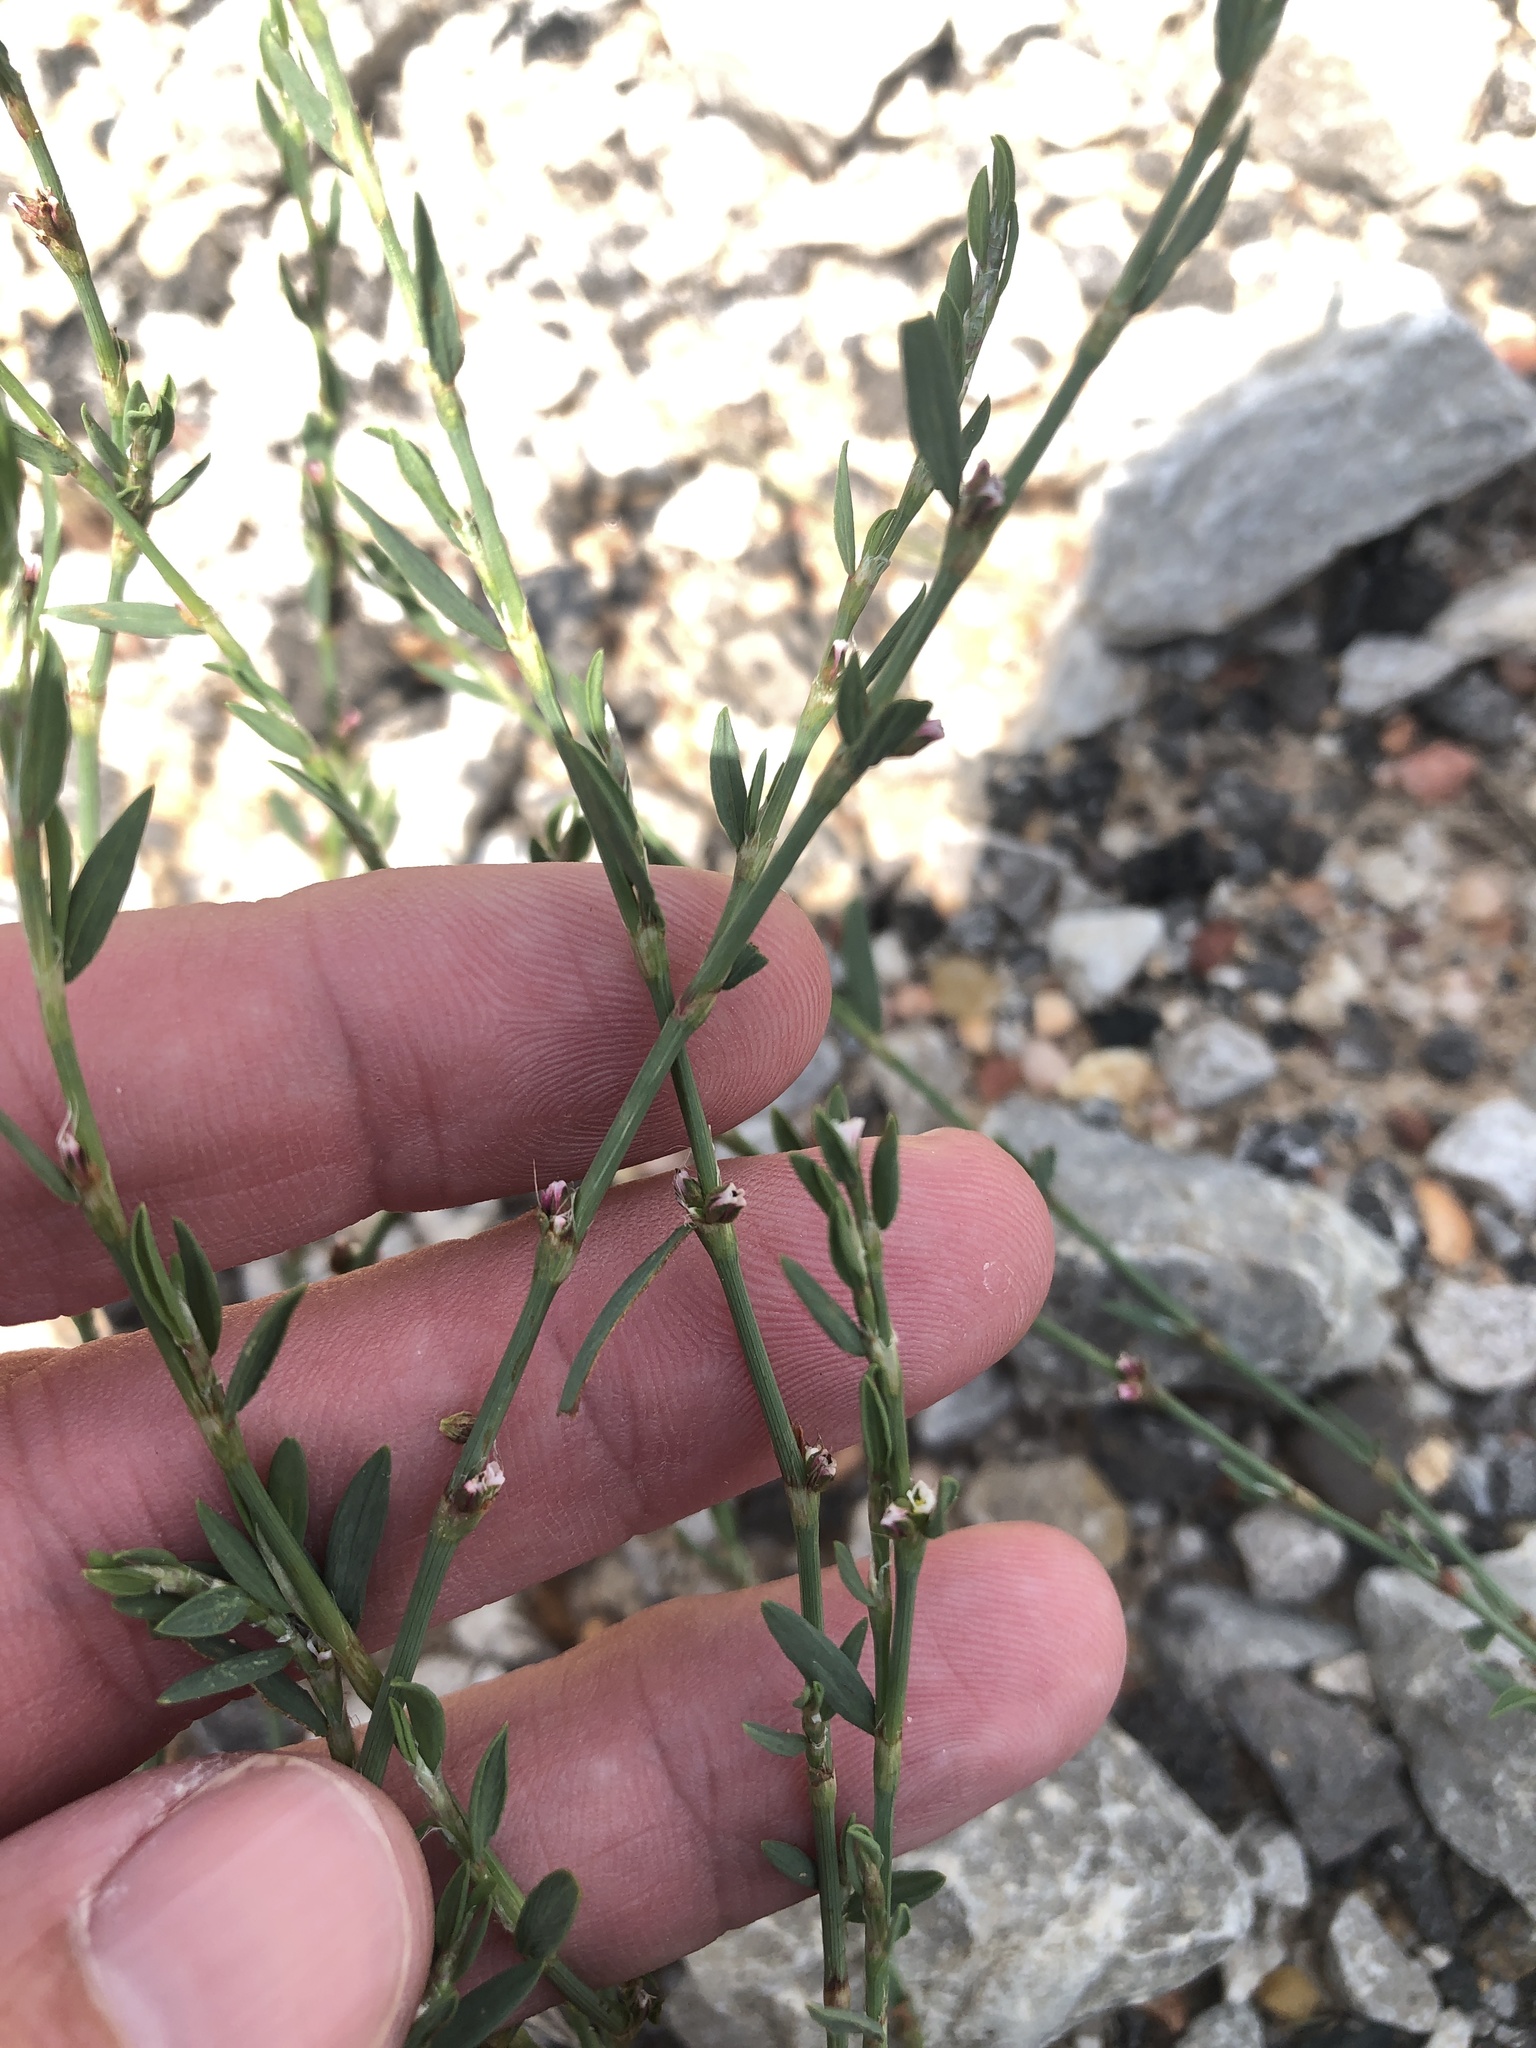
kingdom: Plantae
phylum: Tracheophyta
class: Magnoliopsida
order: Caryophyllales
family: Polygonaceae
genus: Polygonum
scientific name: Polygonum aviculare
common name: Prostrate knotweed
